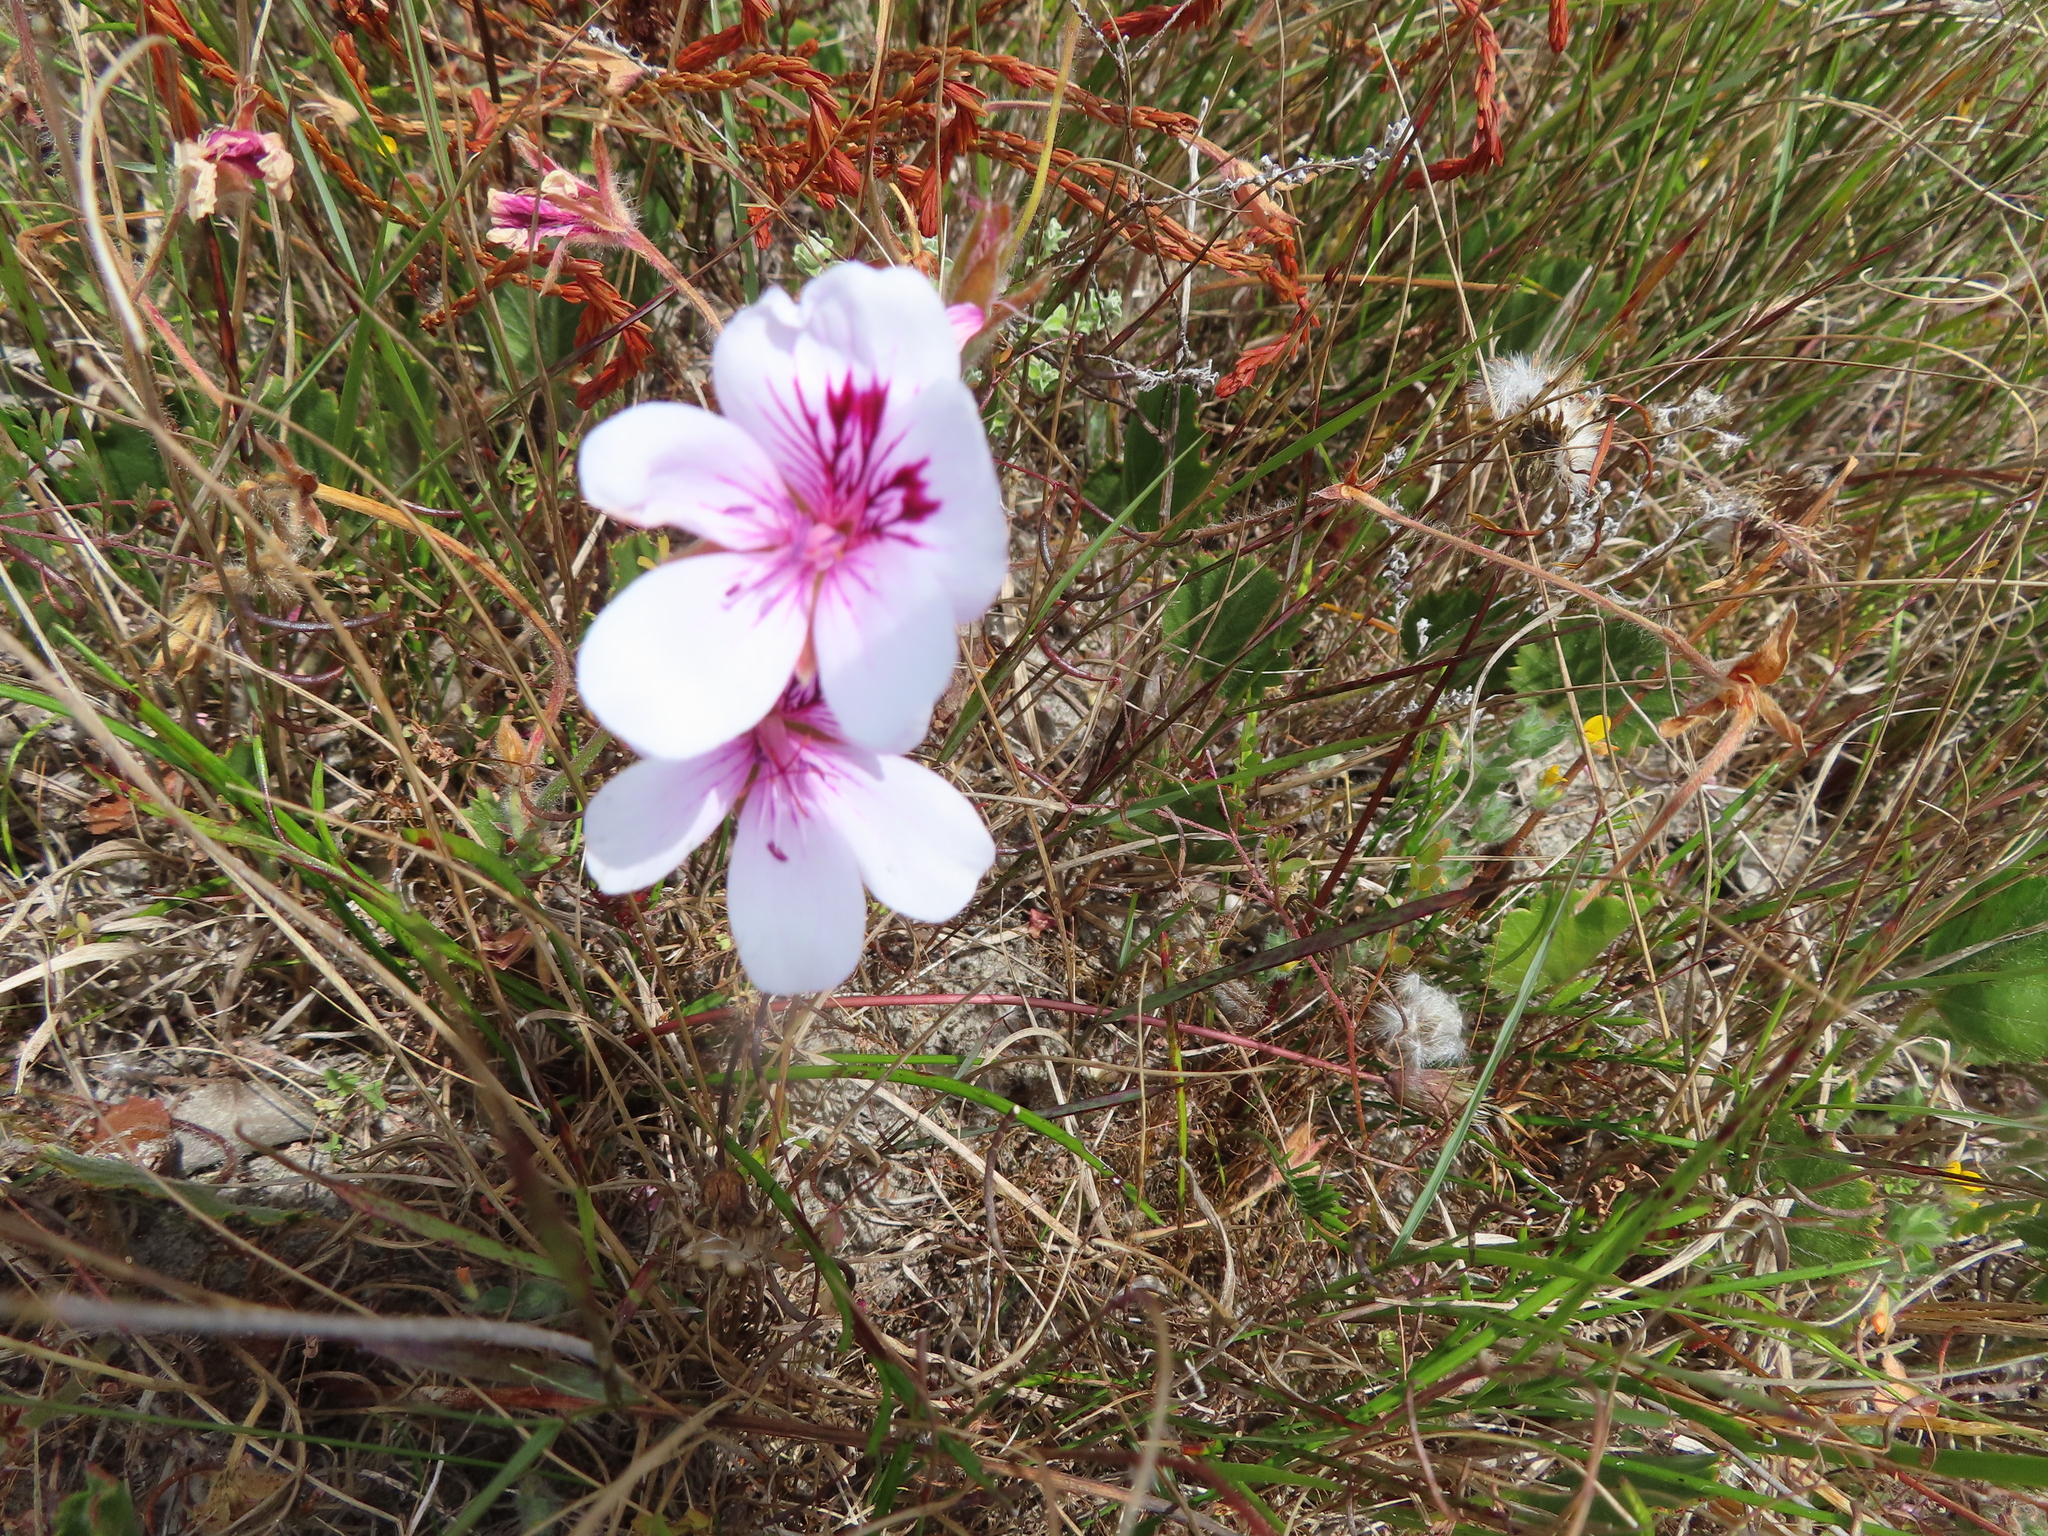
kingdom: Plantae
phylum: Tracheophyta
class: Magnoliopsida
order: Geraniales
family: Geraniaceae
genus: Pelargonium
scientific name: Pelargonium elegans
